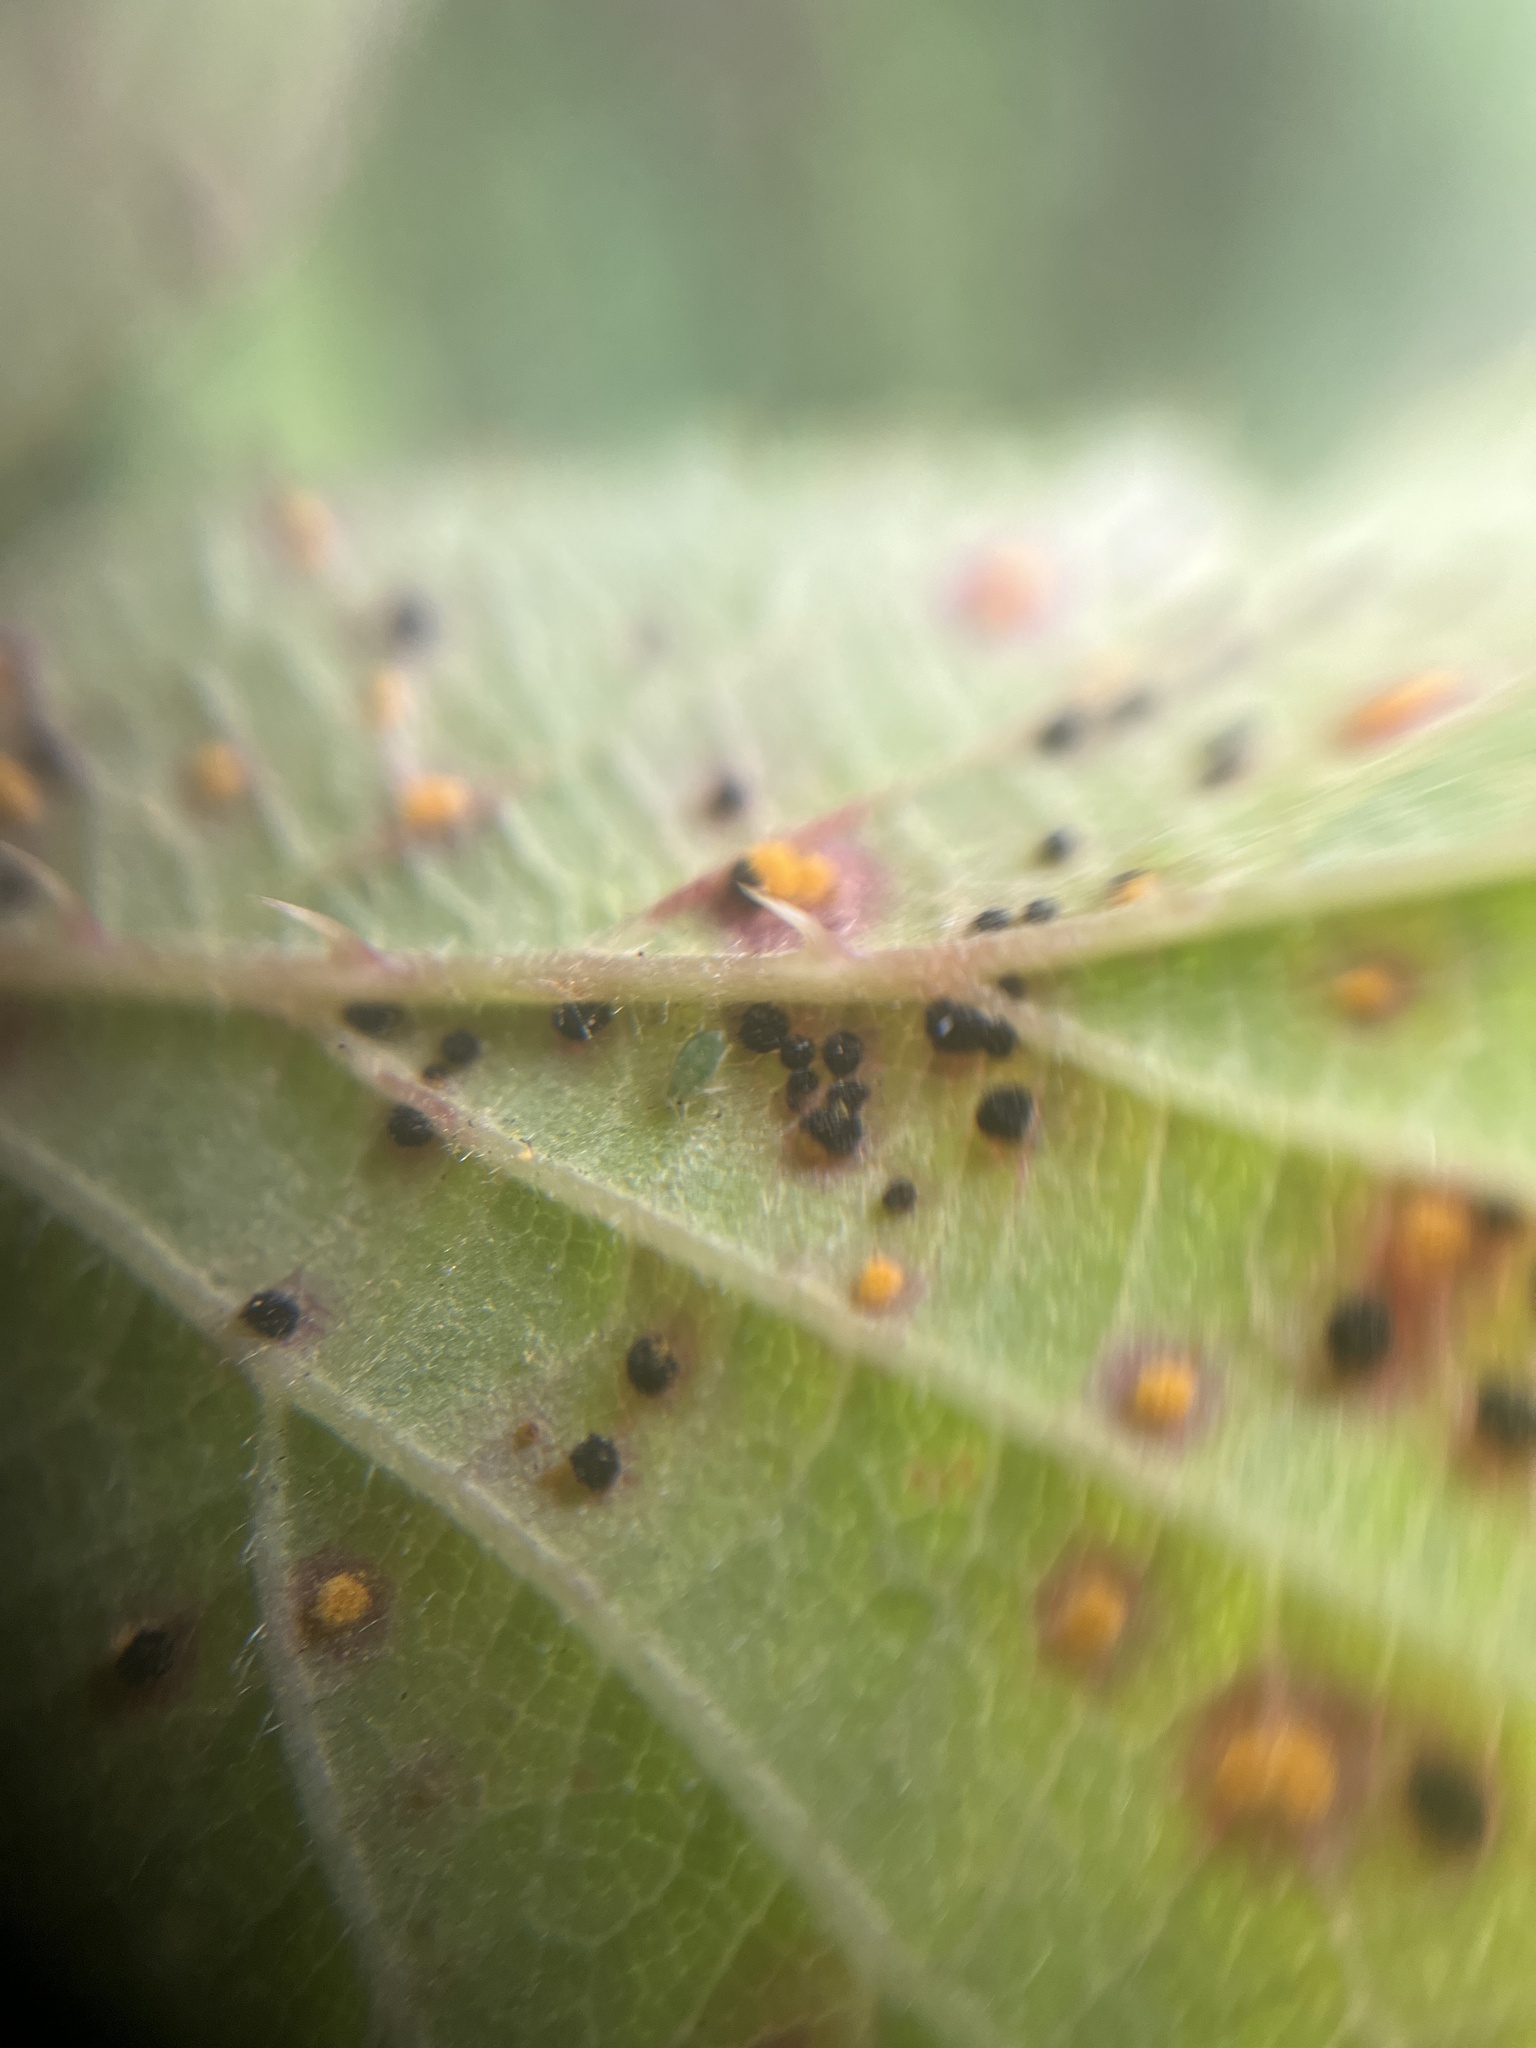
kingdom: Fungi
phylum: Basidiomycota
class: Pucciniomycetes
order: Pucciniales
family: Phragmidiaceae
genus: Phragmidium
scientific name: Phragmidium violaceum
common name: Violet bramble rust
